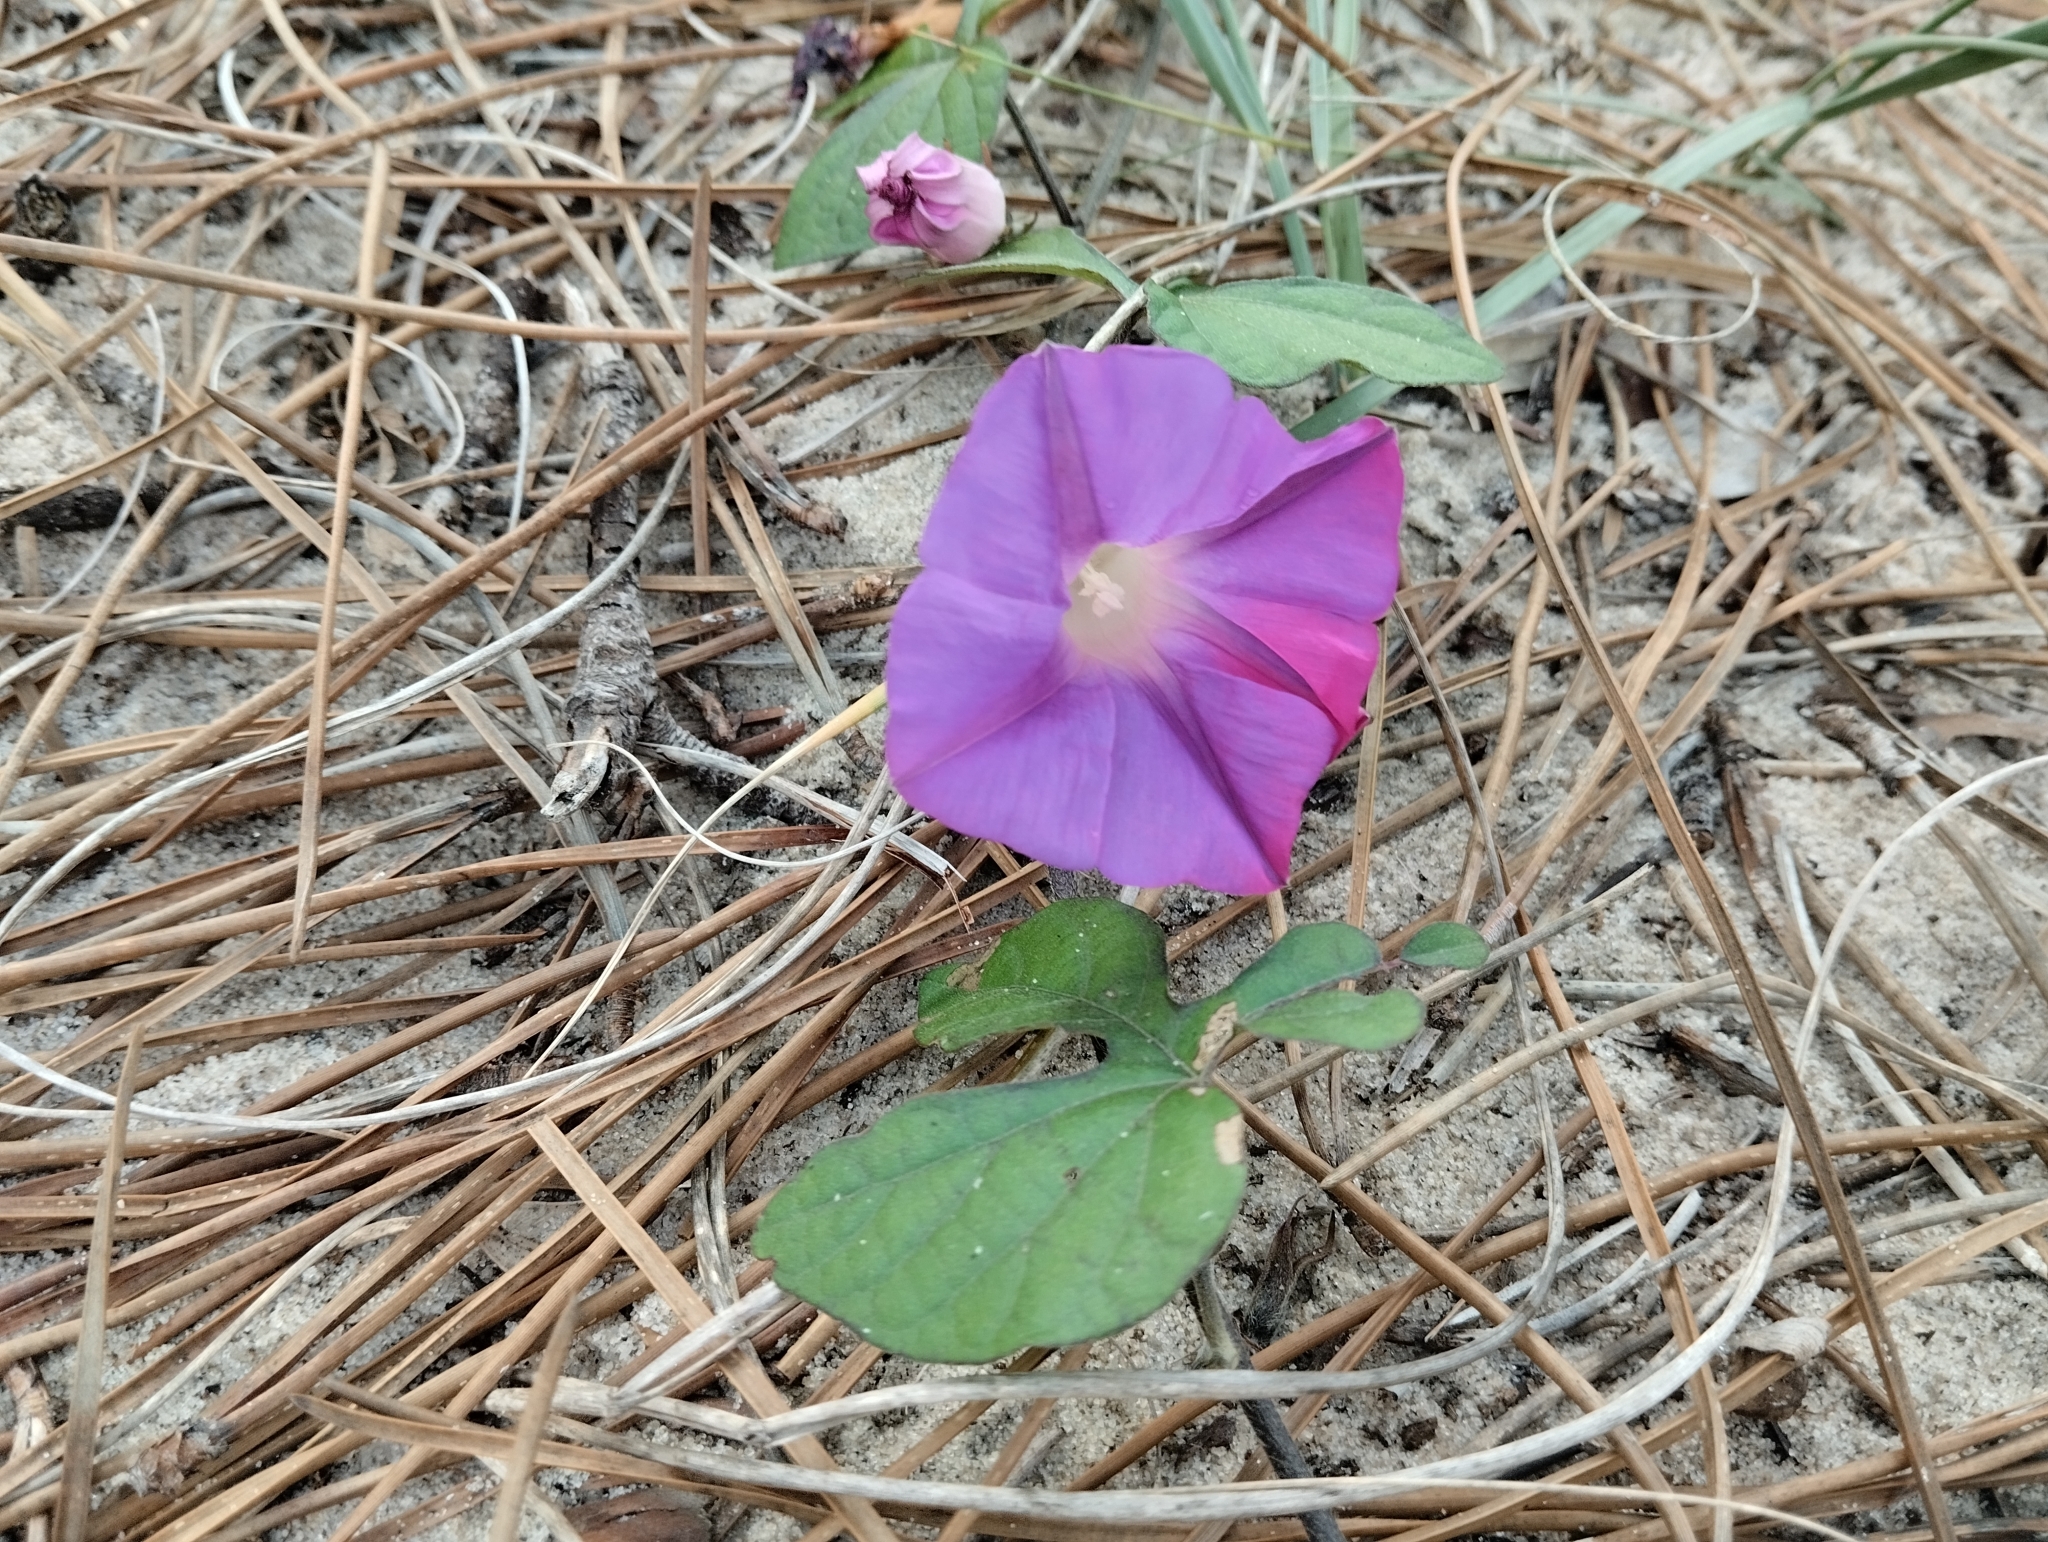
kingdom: Plantae
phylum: Tracheophyta
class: Magnoliopsida
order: Solanales
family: Convolvulaceae
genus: Ipomoea
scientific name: Ipomoea indica
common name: Blue dawnflower
